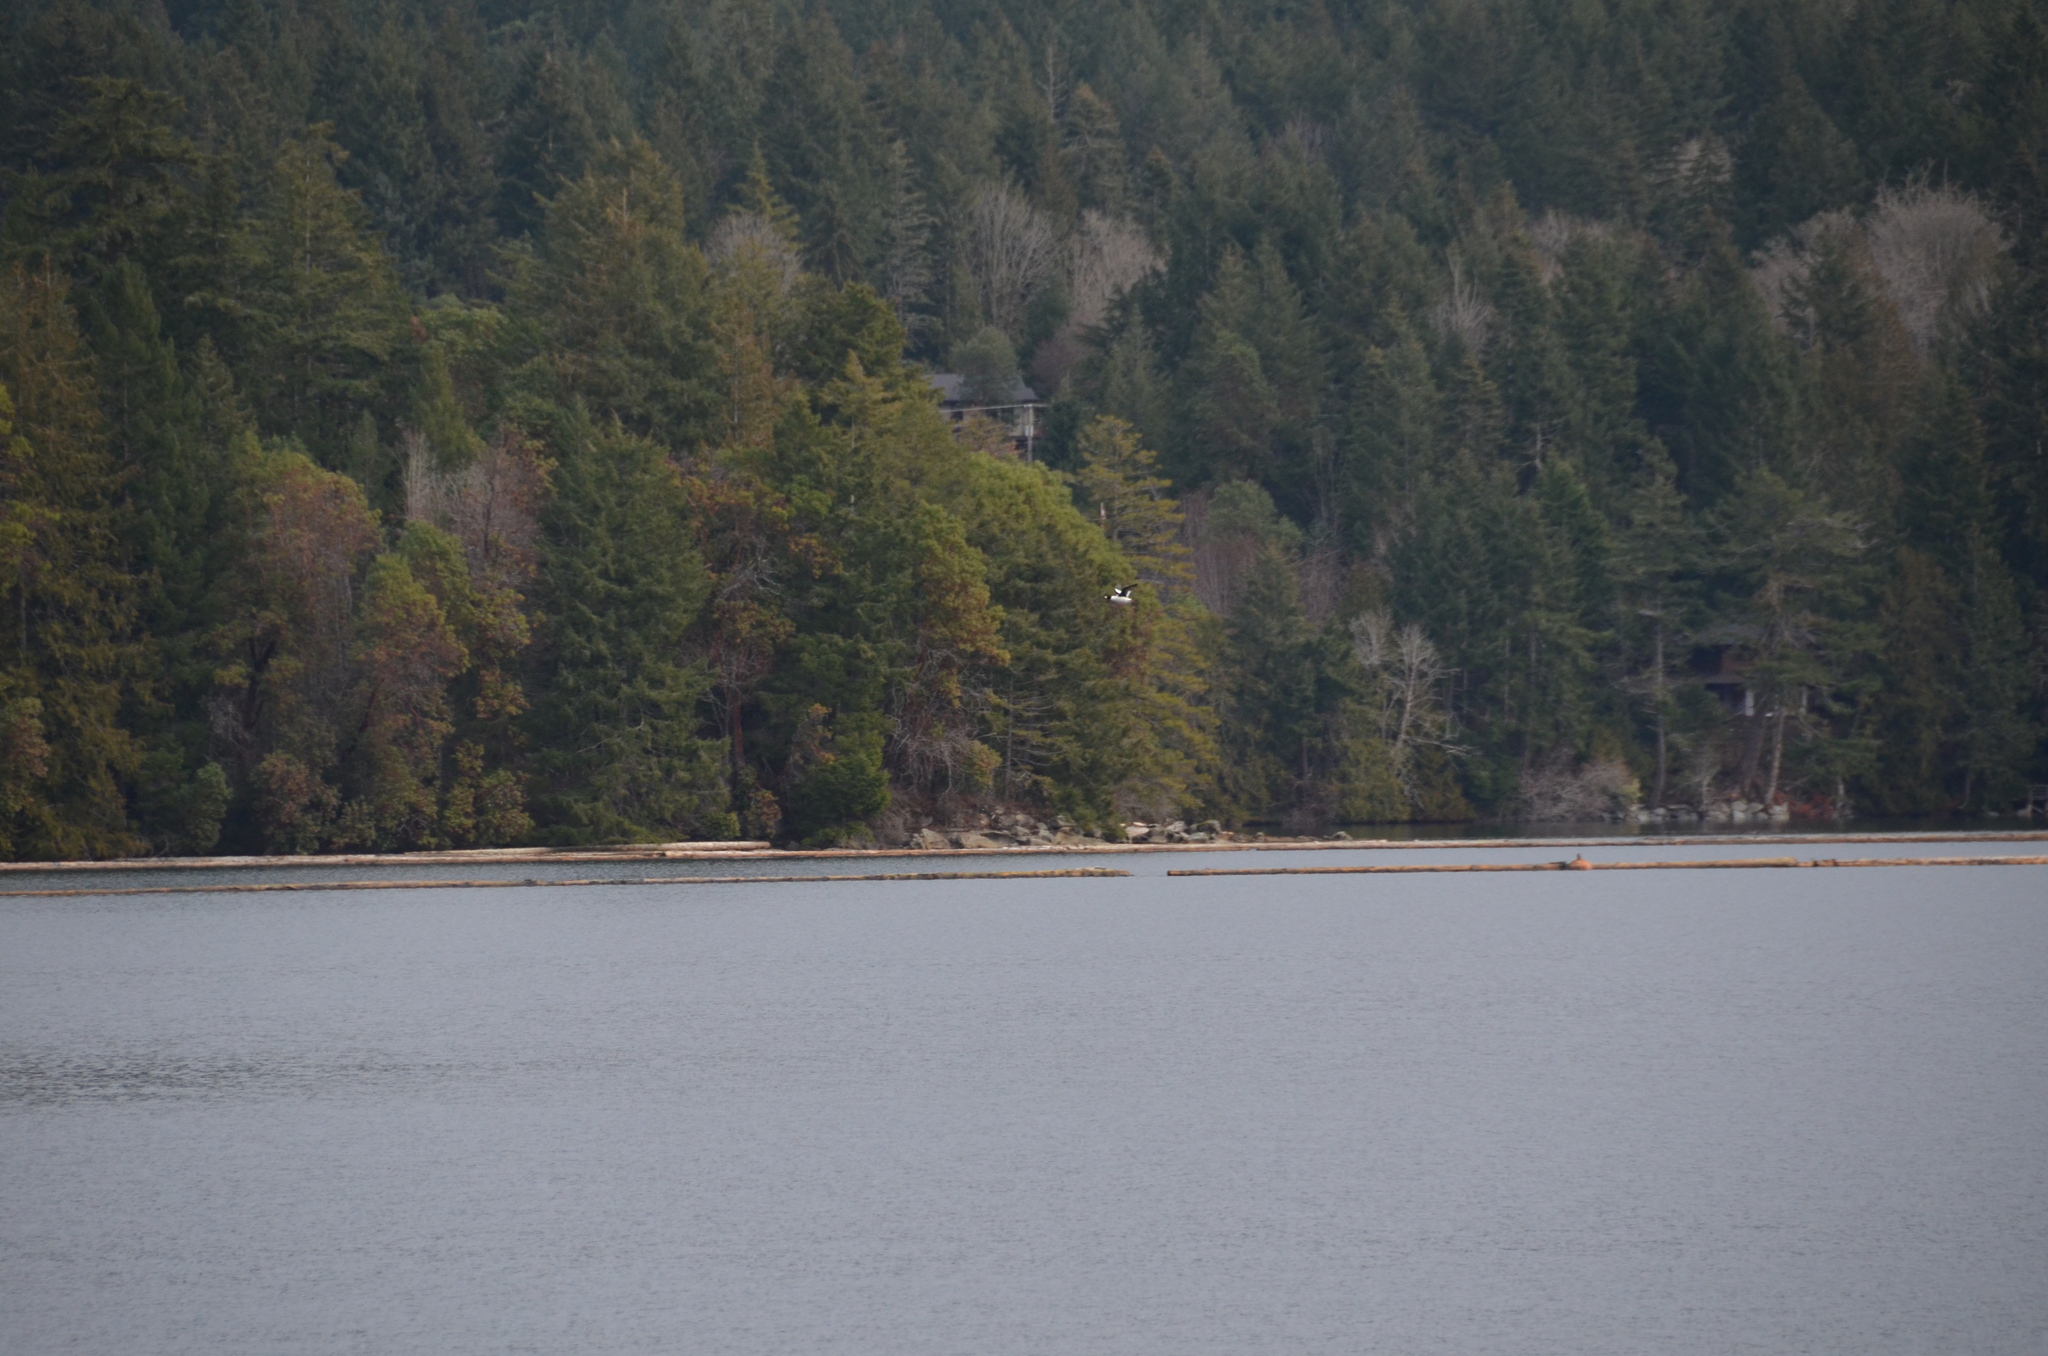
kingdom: Animalia
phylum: Chordata
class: Aves
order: Anseriformes
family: Anatidae
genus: Bucephala
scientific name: Bucephala clangula
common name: Common goldeneye
